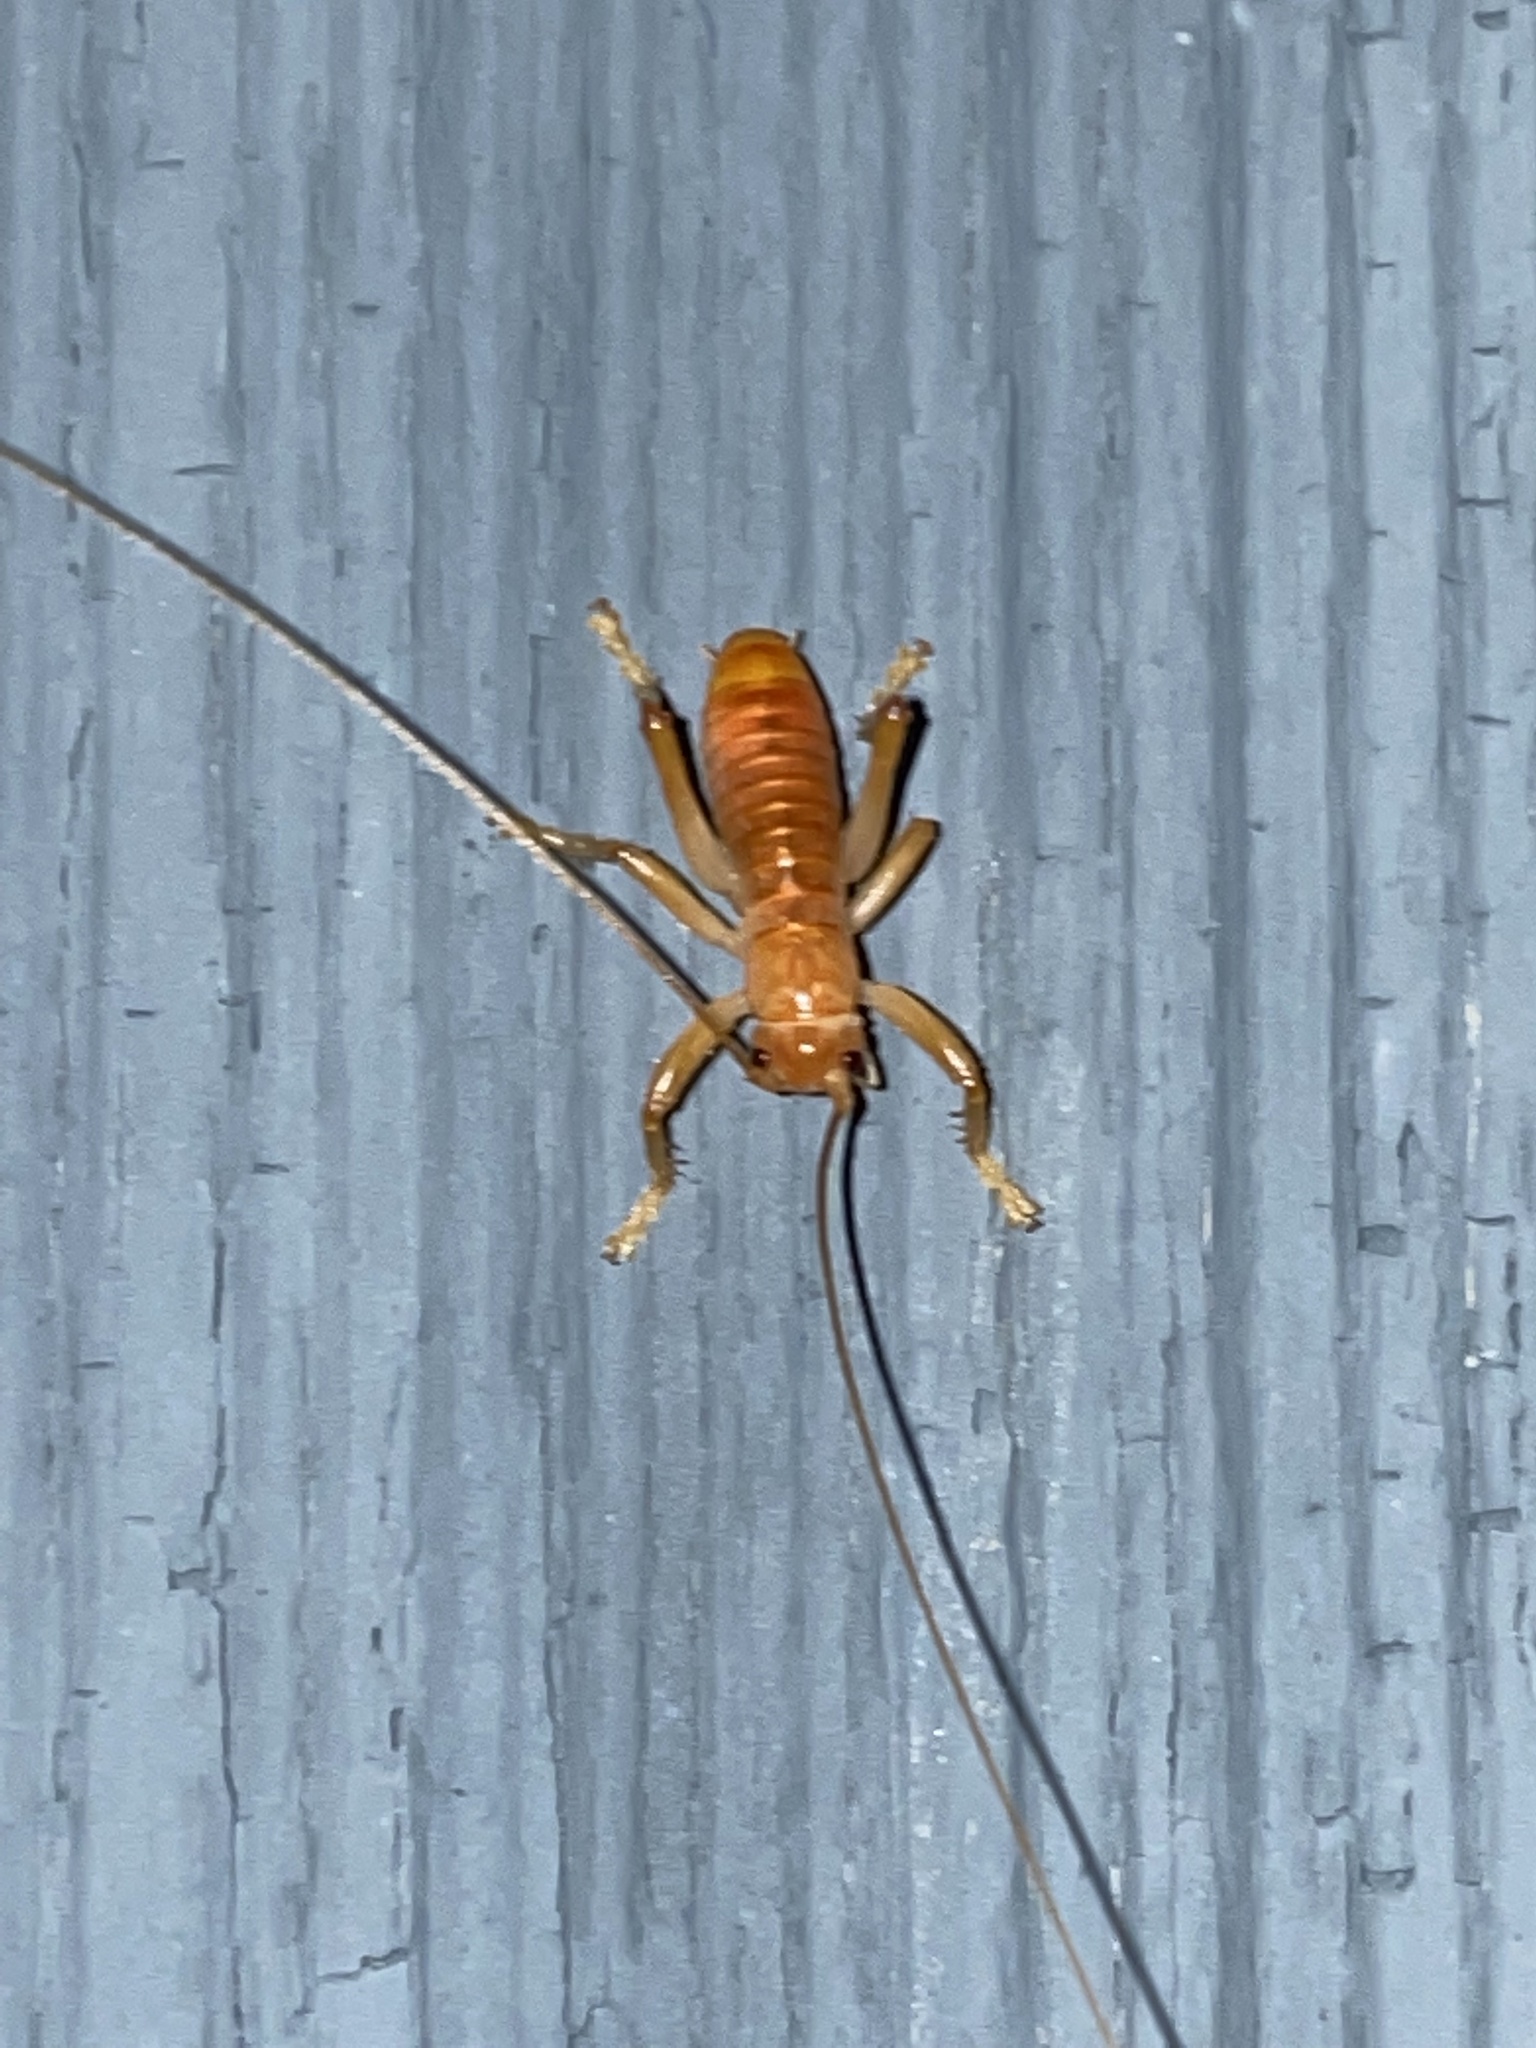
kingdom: Animalia
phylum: Arthropoda
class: Insecta
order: Orthoptera
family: Gryllacrididae
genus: Camptonotus
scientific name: Camptonotus carolinensis
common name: Carolina leaf-roller
